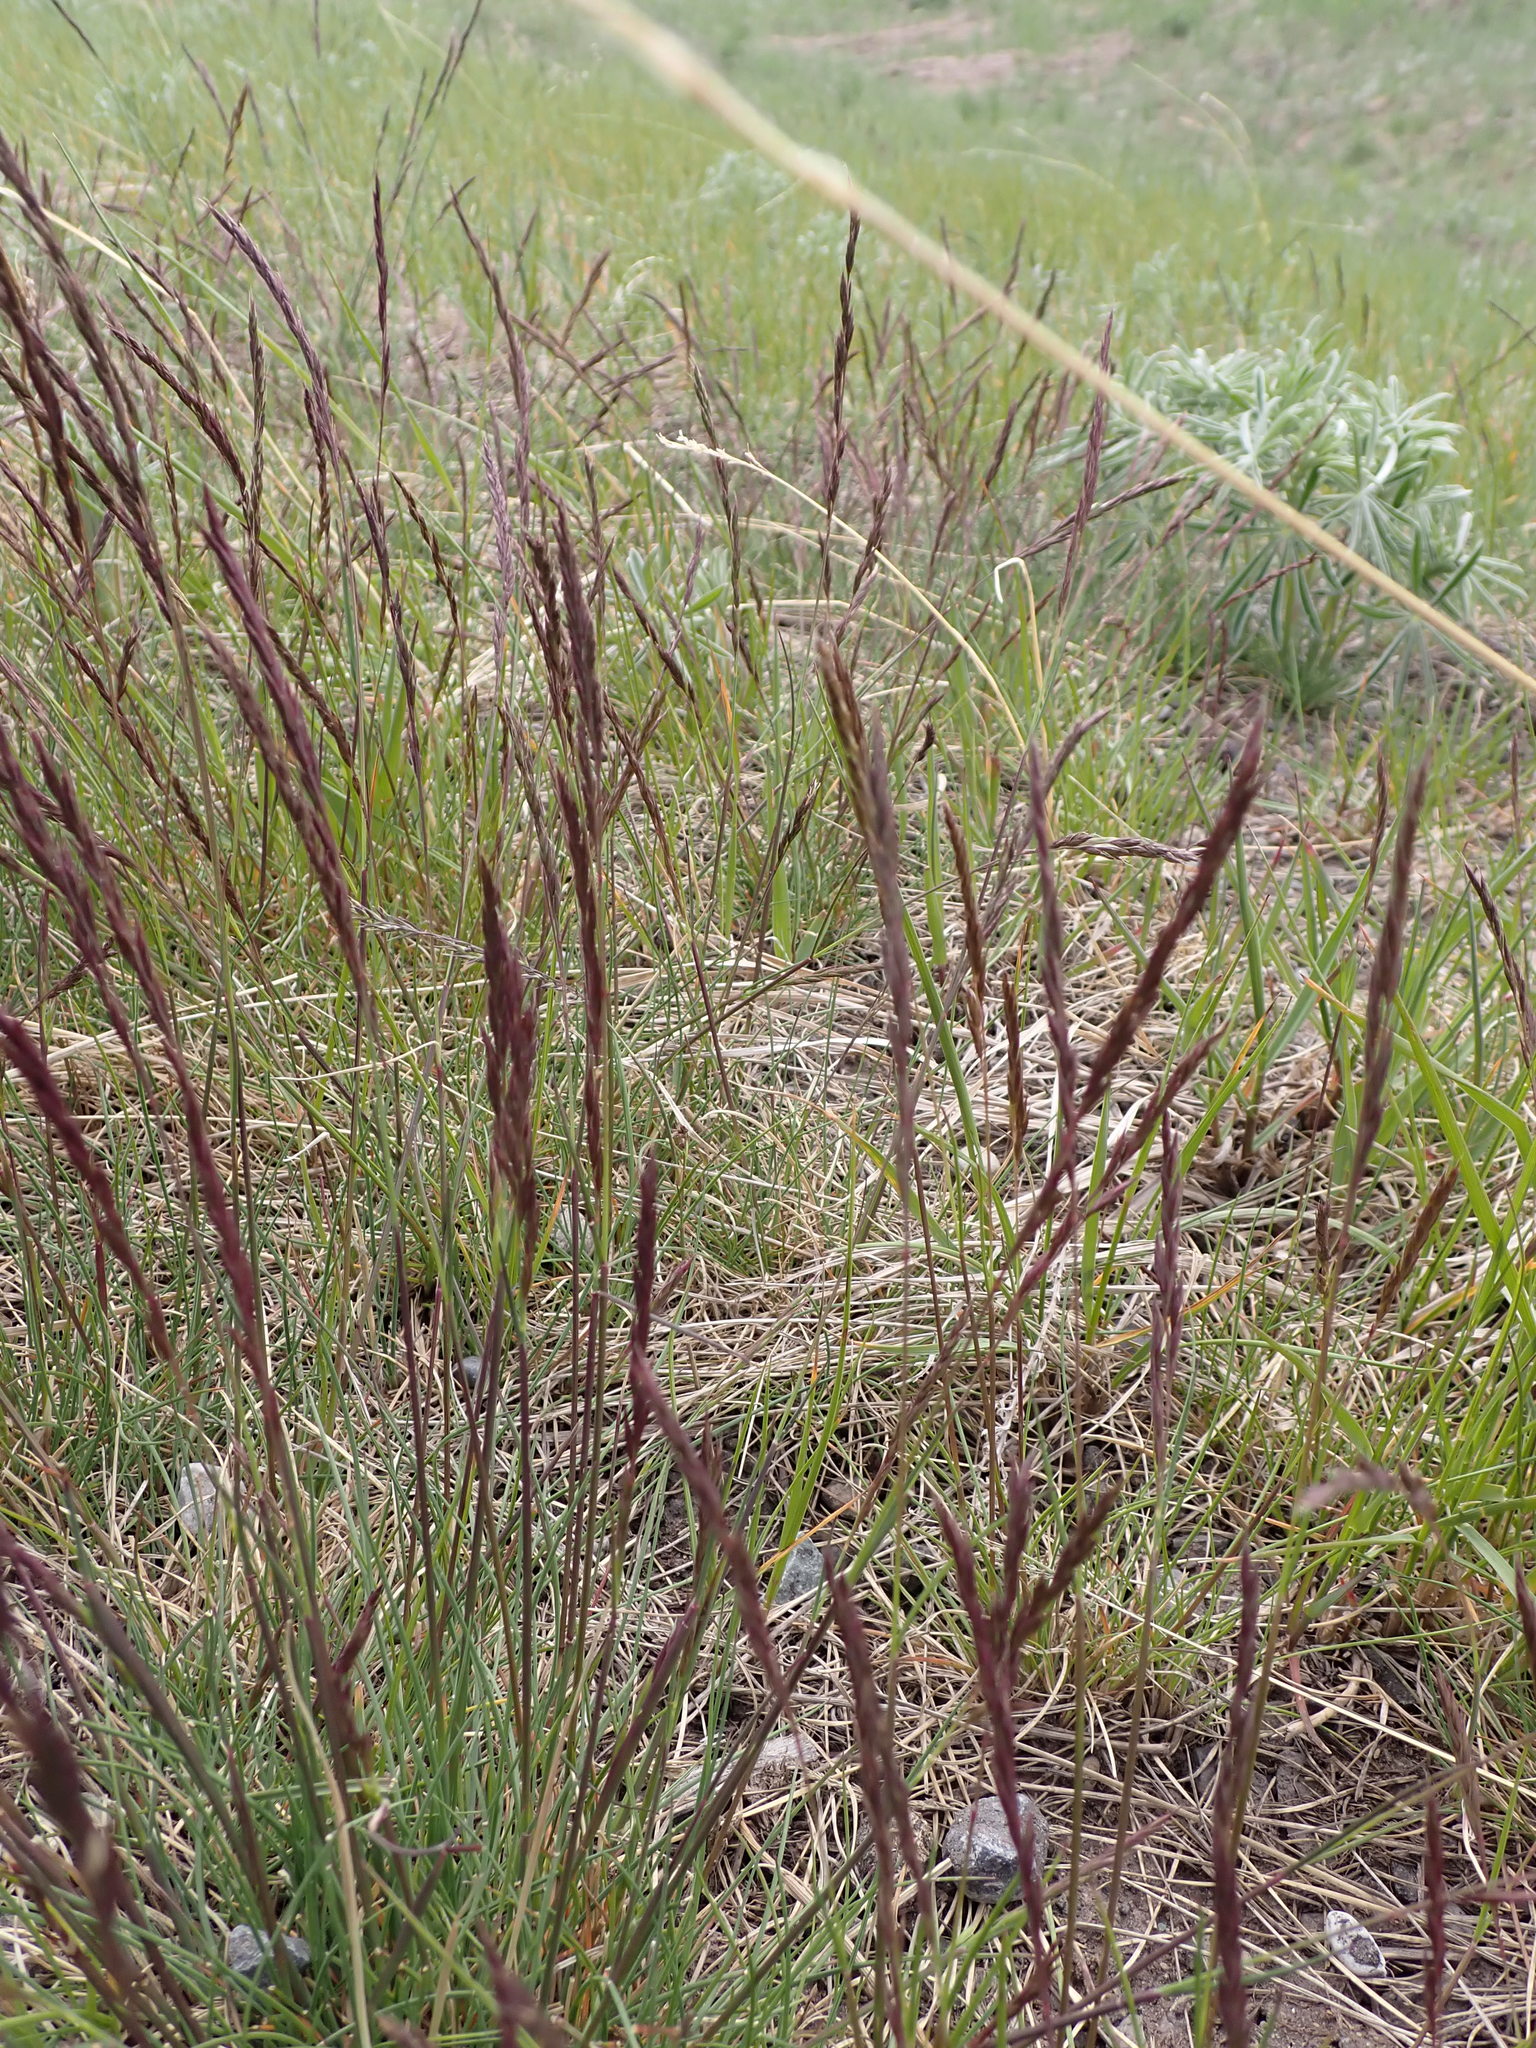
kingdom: Plantae
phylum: Tracheophyta
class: Liliopsida
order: Poales
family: Poaceae
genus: Festuca
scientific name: Festuca campestris
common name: Mountain rough fescue
